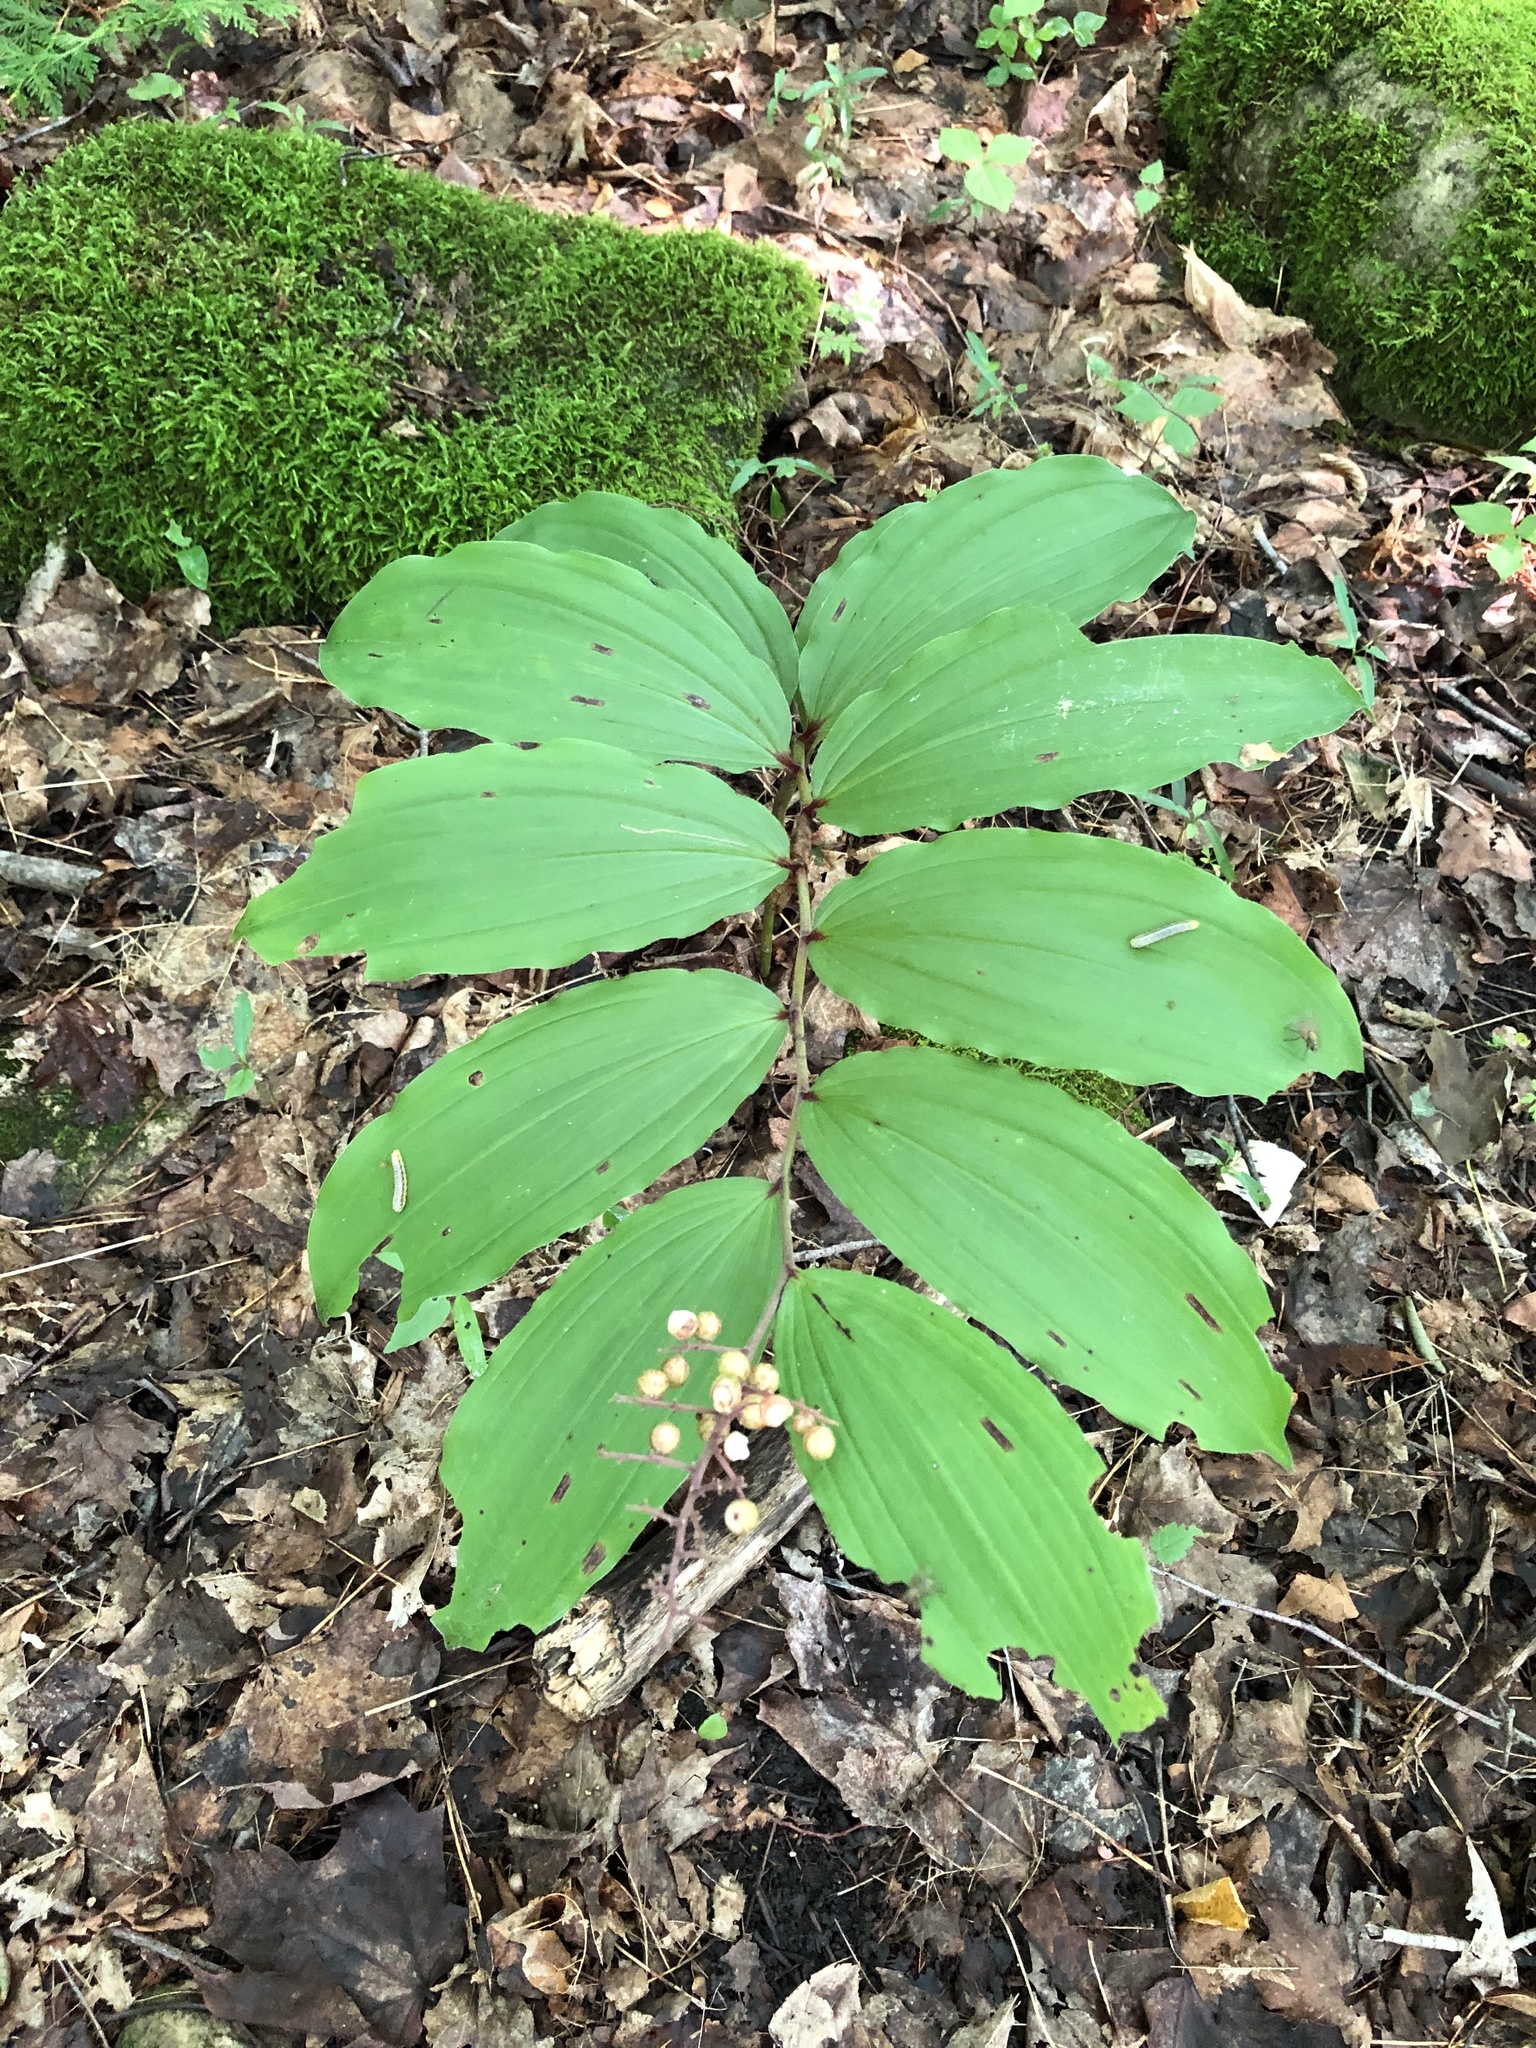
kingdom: Plantae
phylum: Tracheophyta
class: Liliopsida
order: Asparagales
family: Asparagaceae
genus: Maianthemum
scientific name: Maianthemum racemosum
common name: False spikenard
